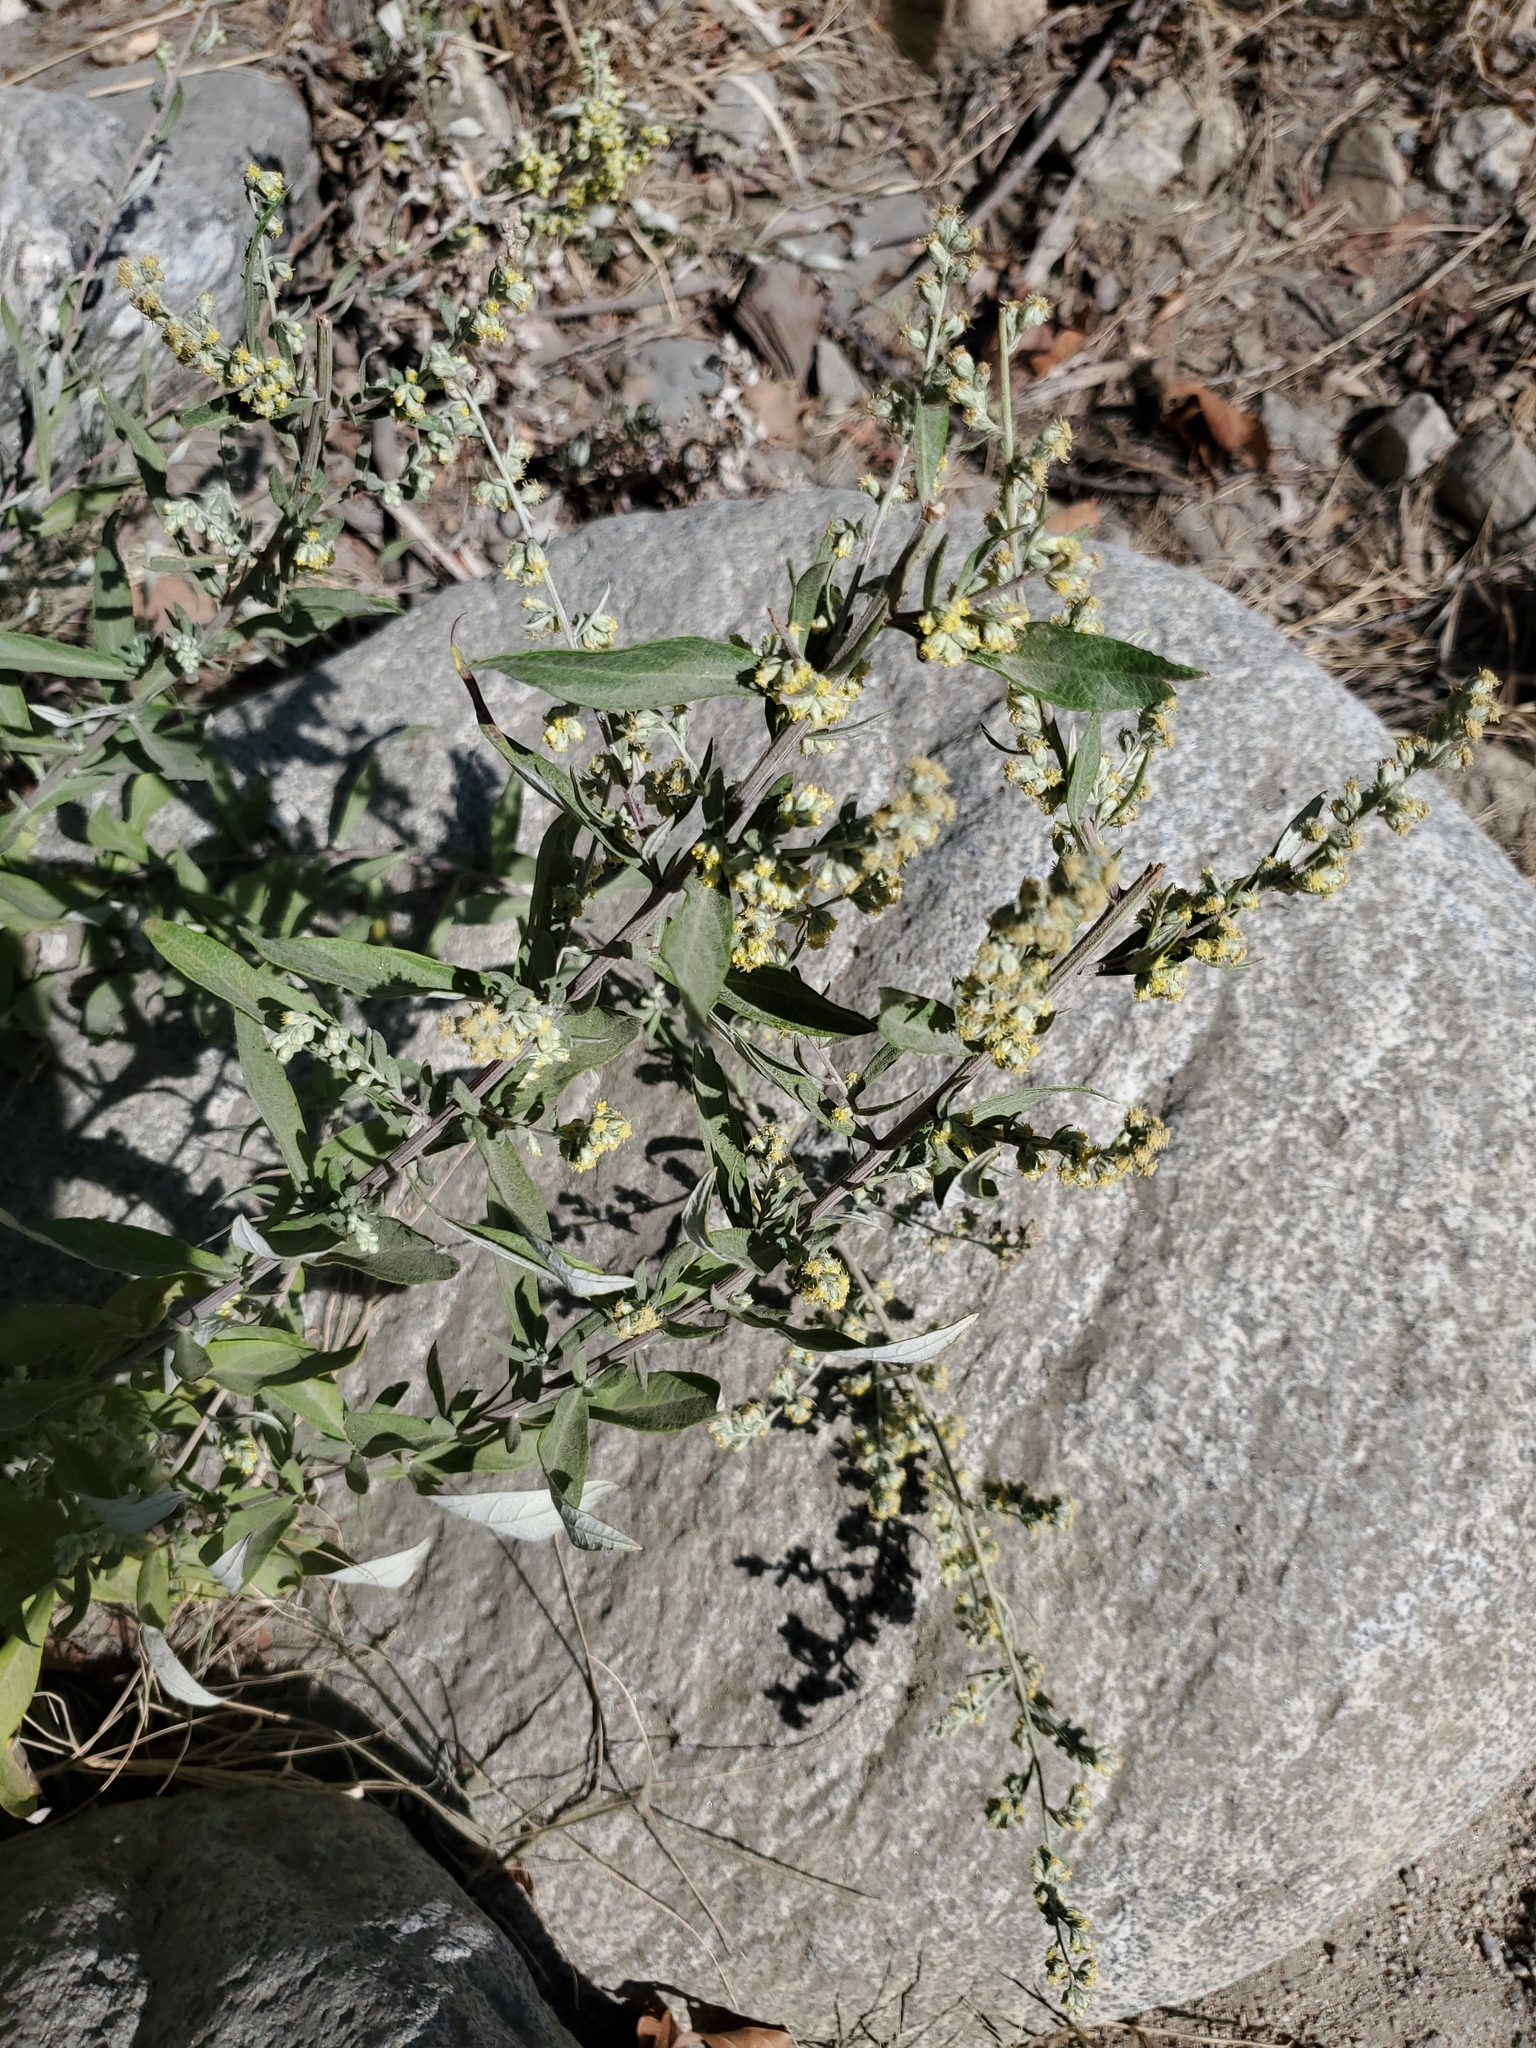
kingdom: Plantae
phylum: Tracheophyta
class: Magnoliopsida
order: Asterales
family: Asteraceae
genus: Artemisia
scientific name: Artemisia douglasiana
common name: Northwest mugwort
